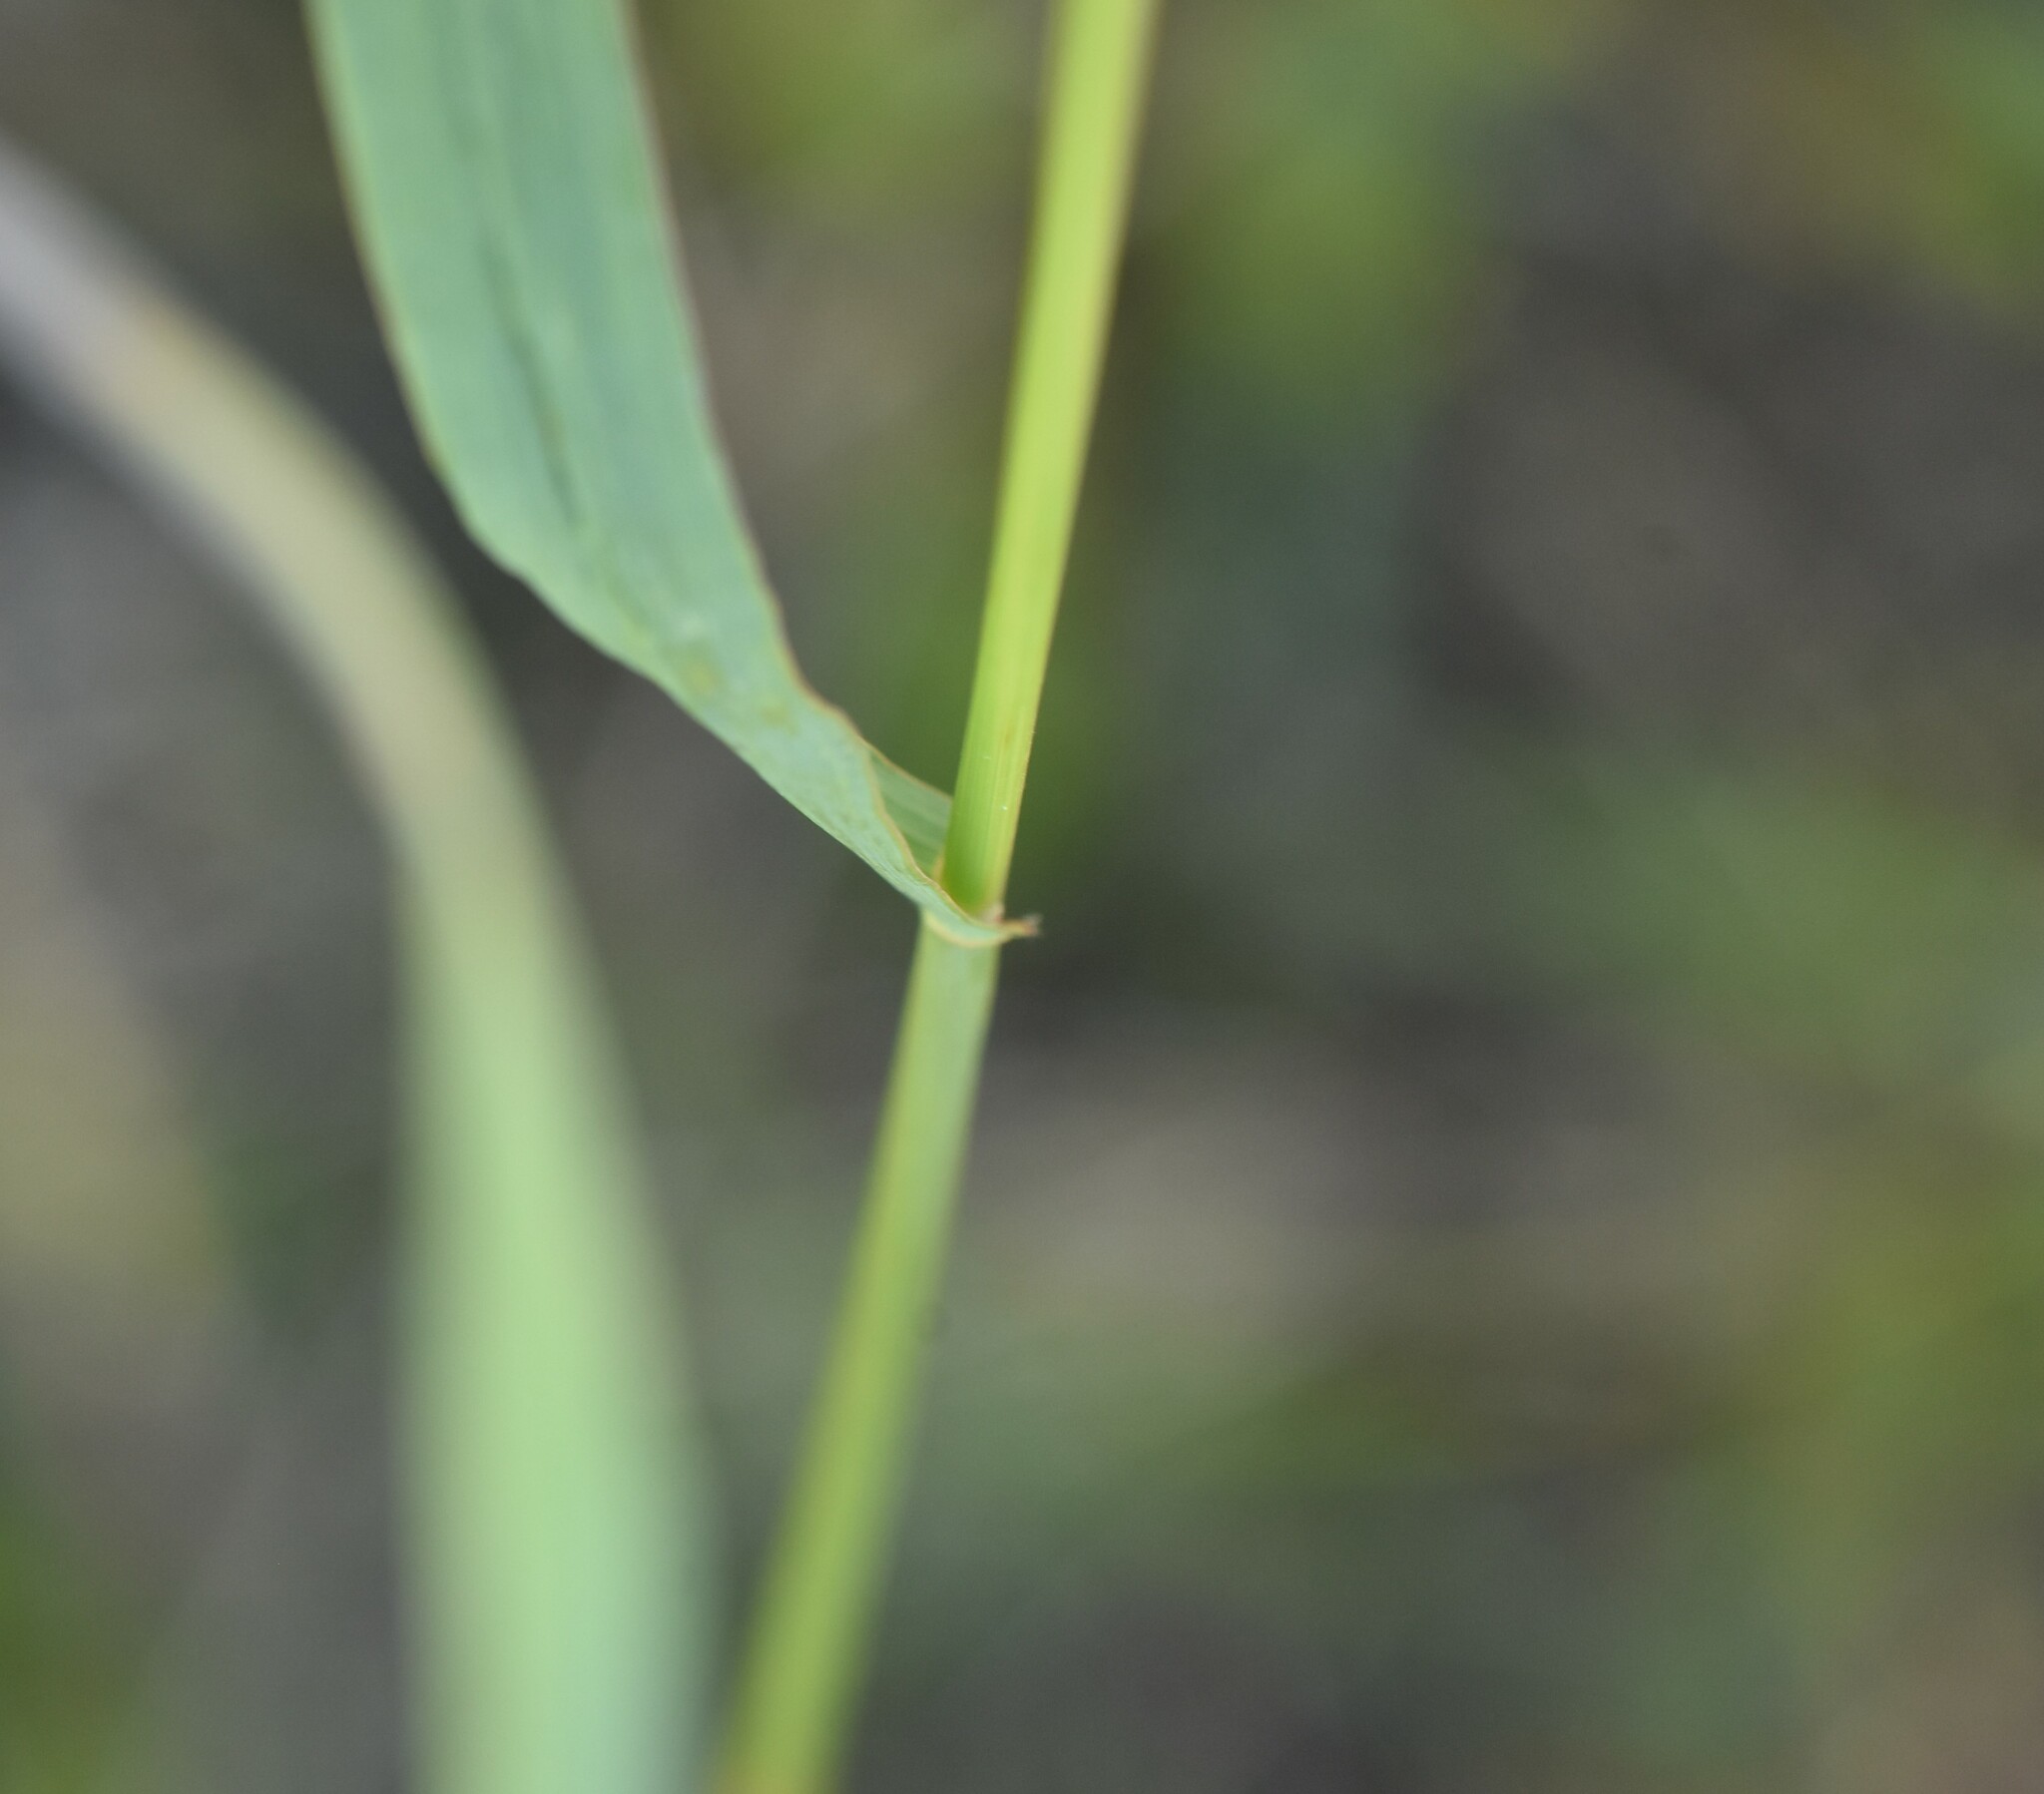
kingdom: Plantae
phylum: Tracheophyta
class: Liliopsida
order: Poales
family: Poaceae
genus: Bromus
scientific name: Bromus inermis
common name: Smooth brome
